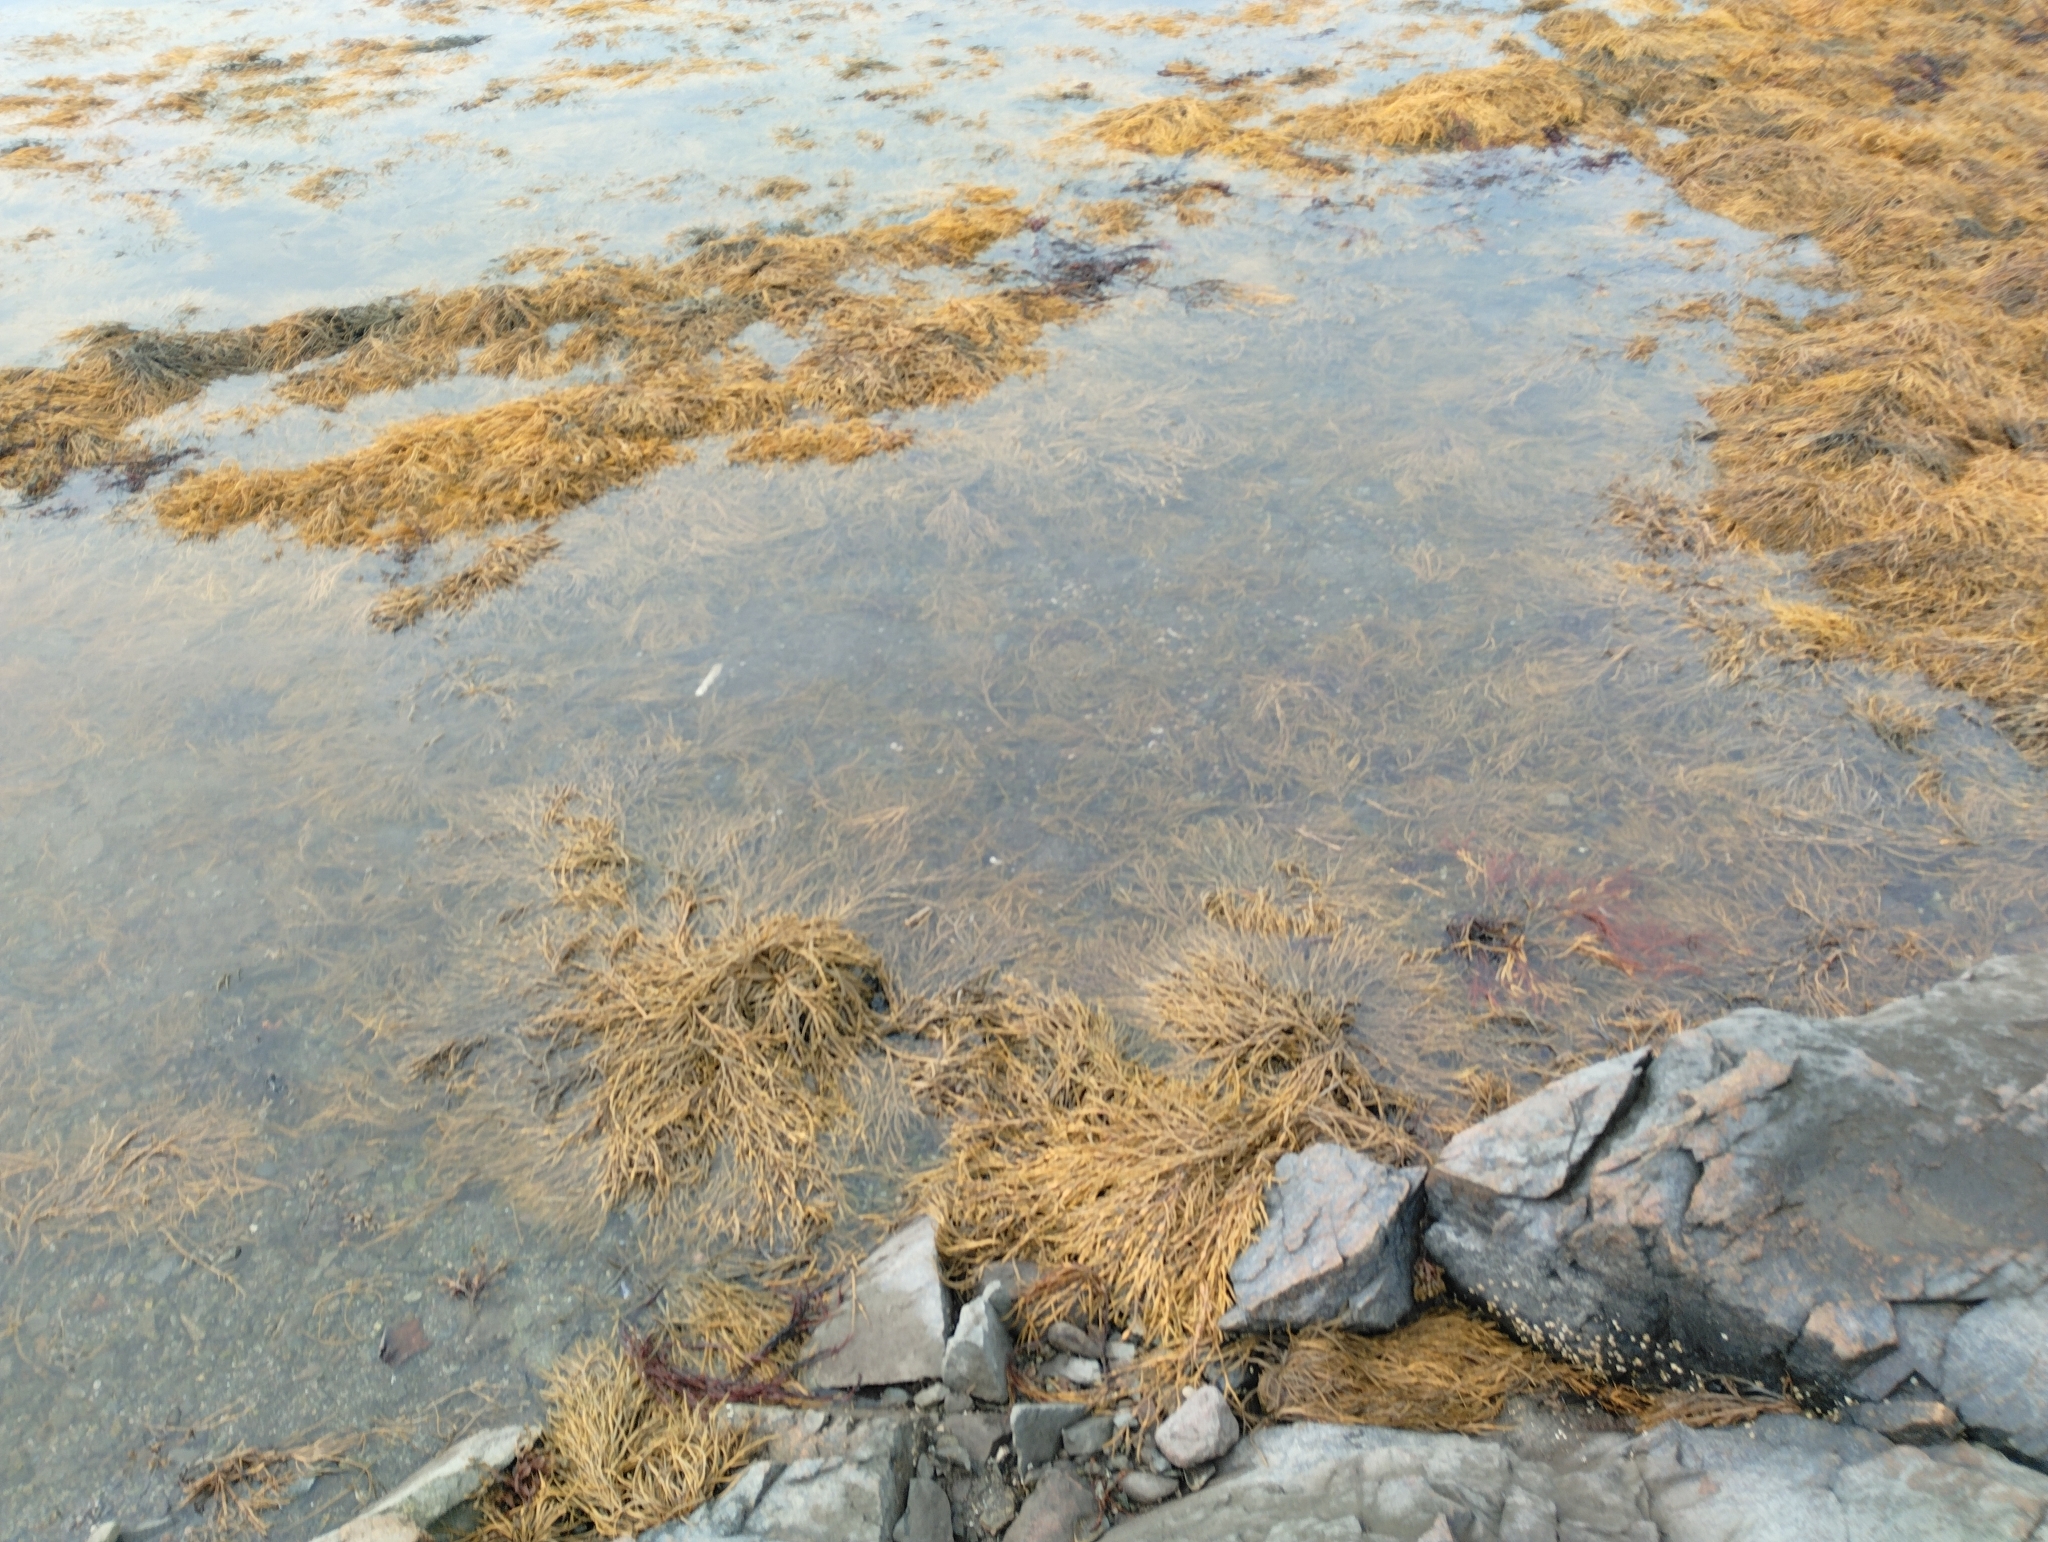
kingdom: Chromista
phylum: Ochrophyta
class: Phaeophyceae
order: Fucales
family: Fucaceae
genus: Ascophyllum
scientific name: Ascophyllum nodosum
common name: Knotted wrack
